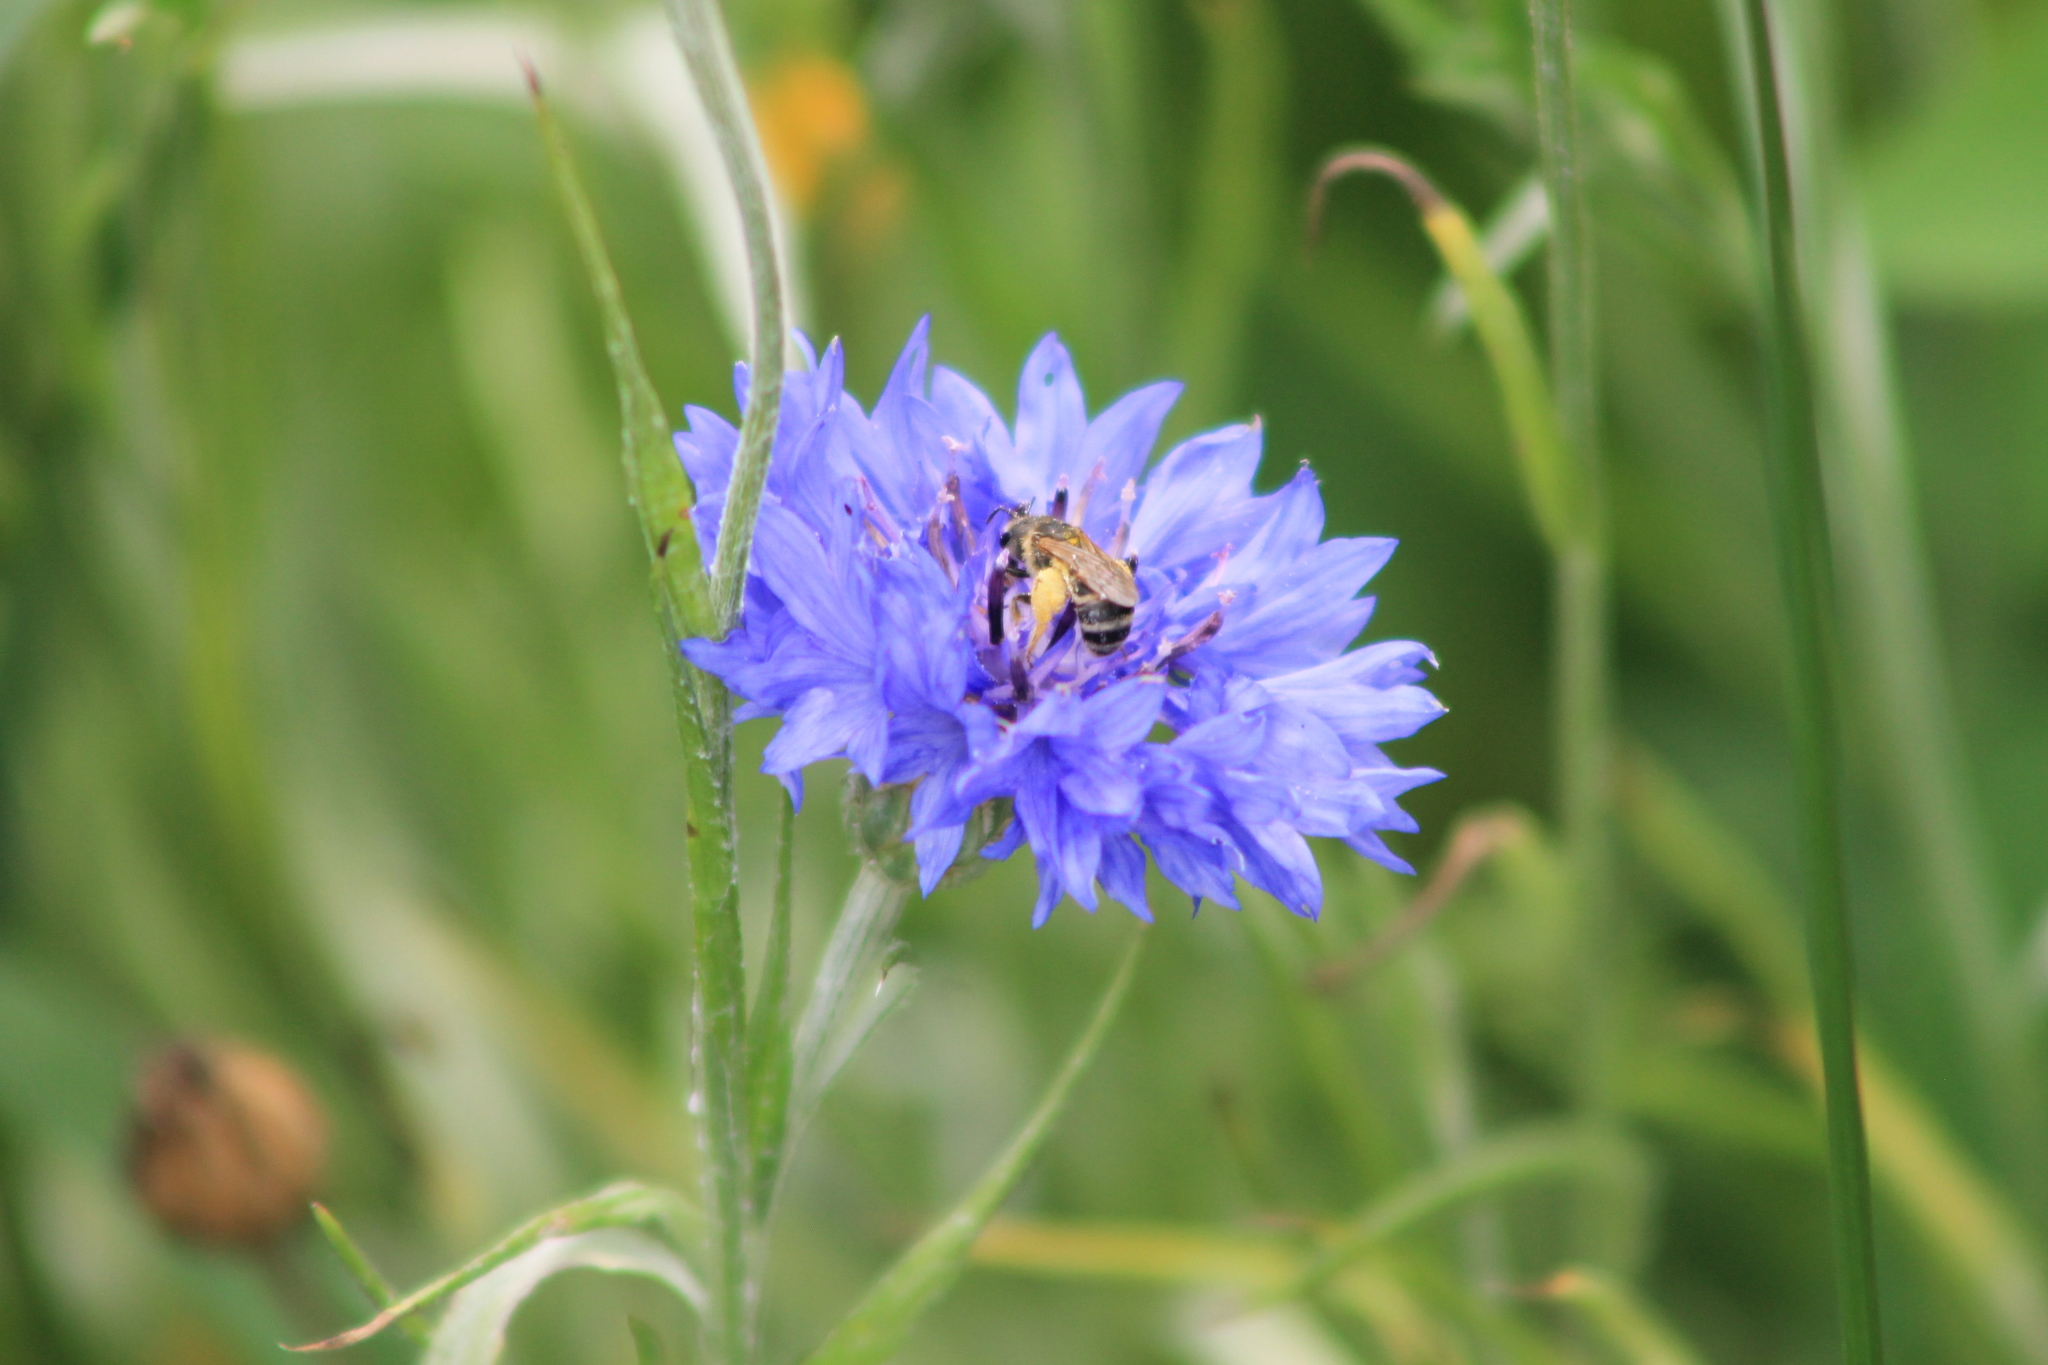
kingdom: Animalia
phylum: Arthropoda
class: Insecta
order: Hymenoptera
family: Halictidae
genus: Halictus
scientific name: Halictus ligatus
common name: Ligated furrow bee
